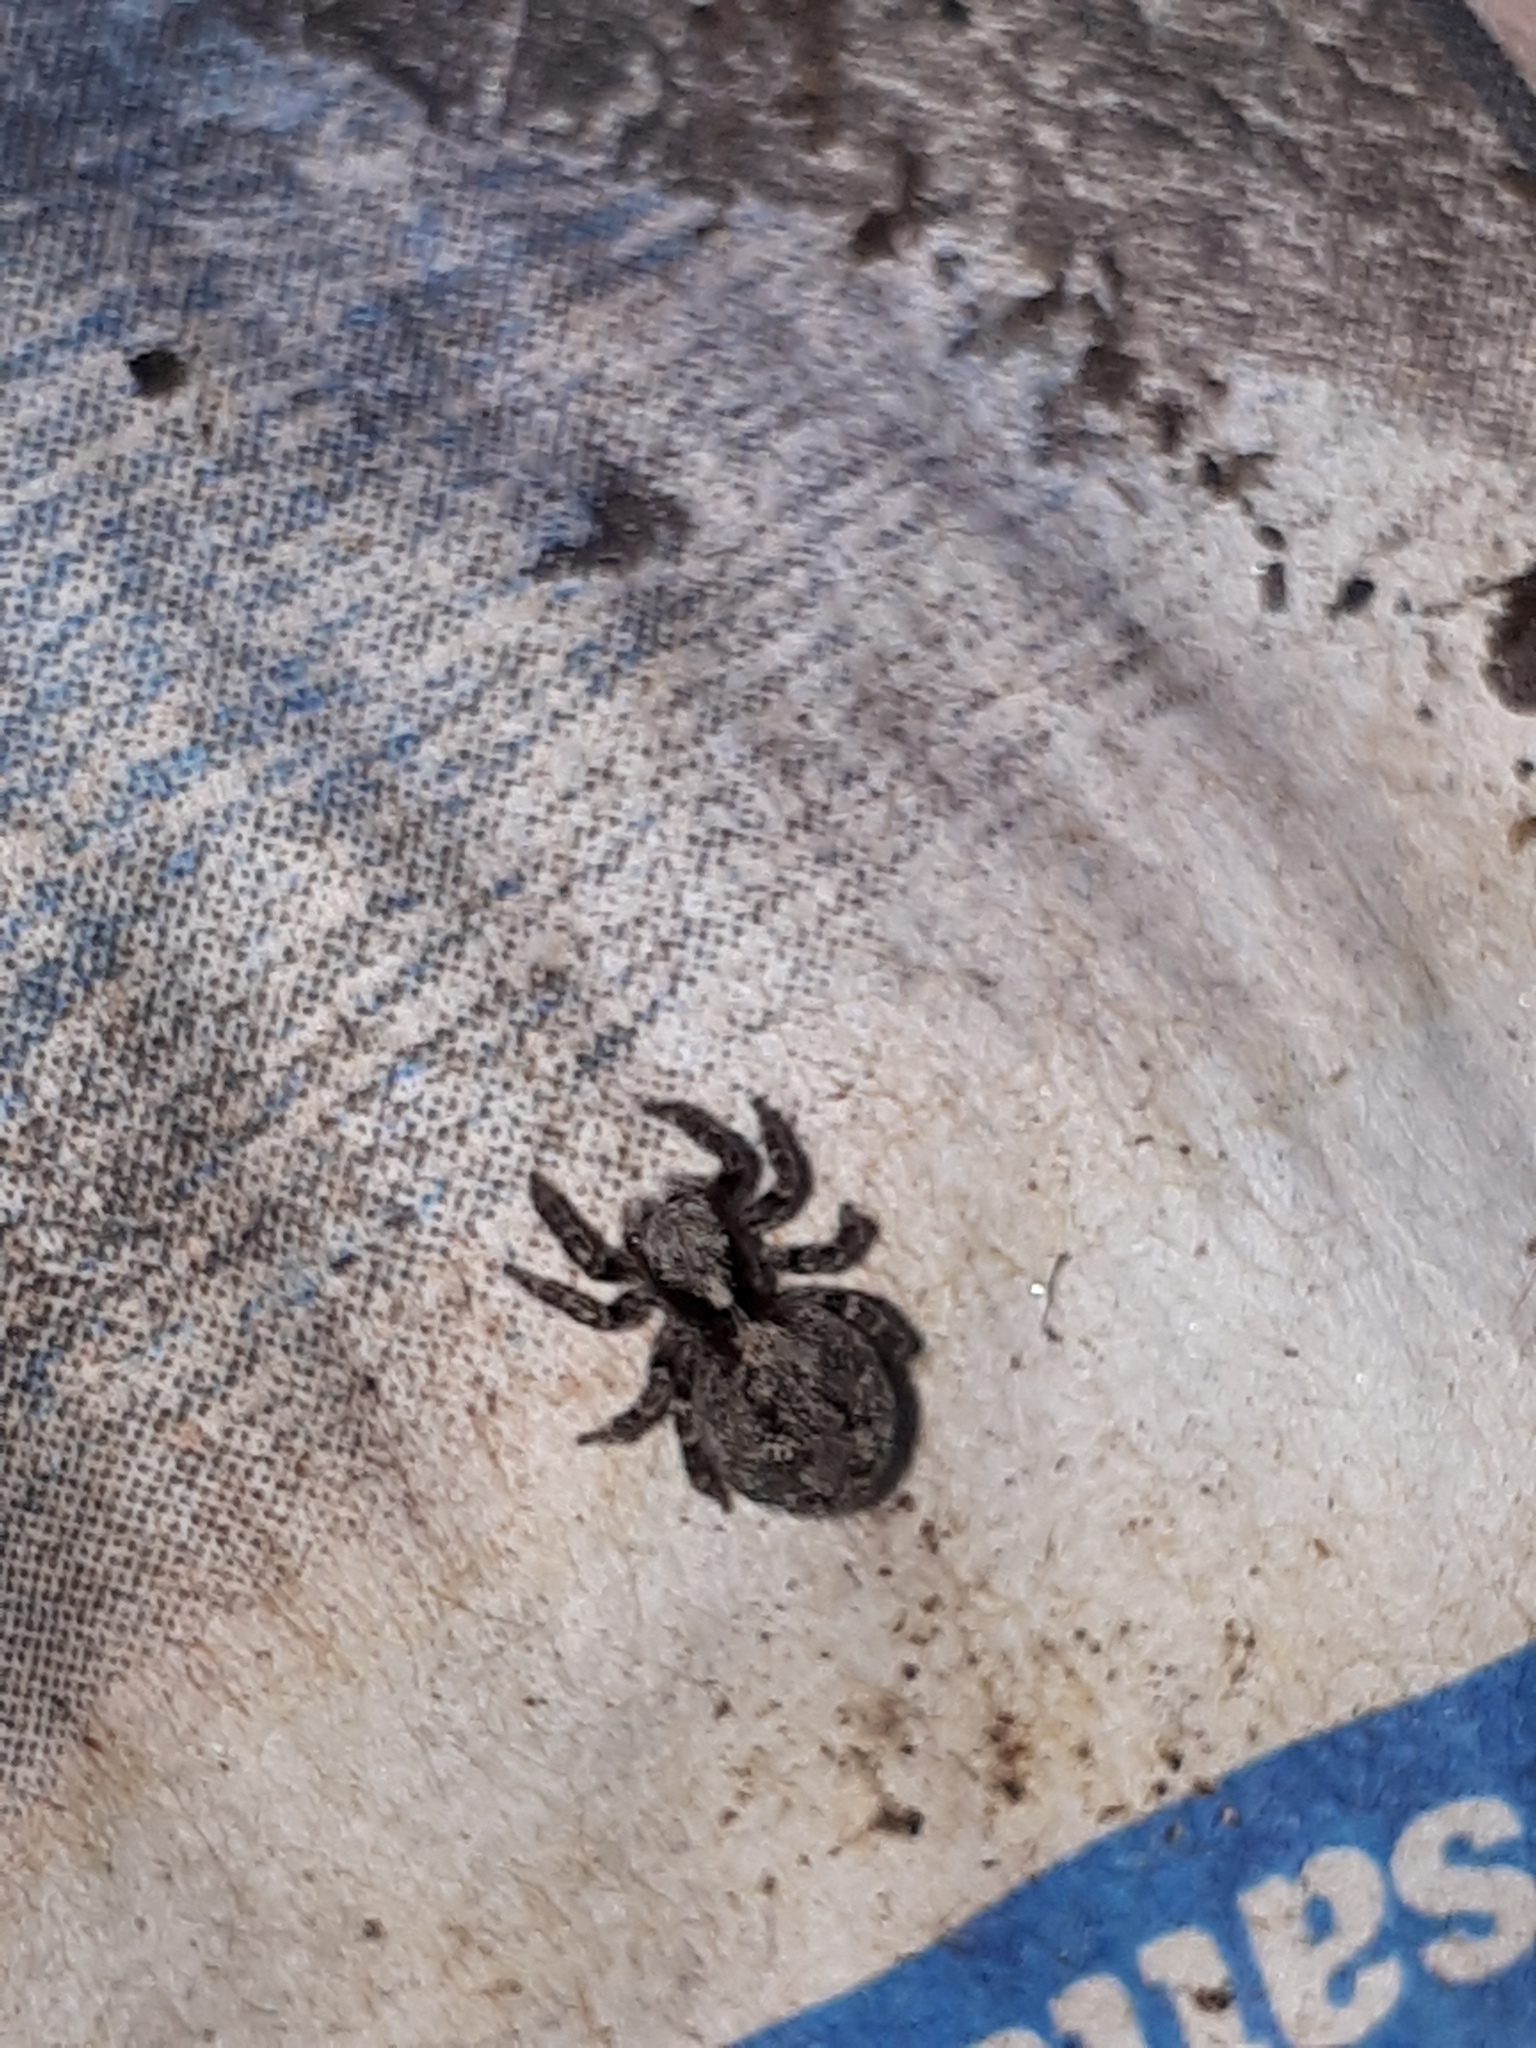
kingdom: Animalia
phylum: Arthropoda
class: Arachnida
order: Araneae
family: Salticidae
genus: Pseudeuophrys
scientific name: Pseudeuophrys lanigera
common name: Jumping spider
